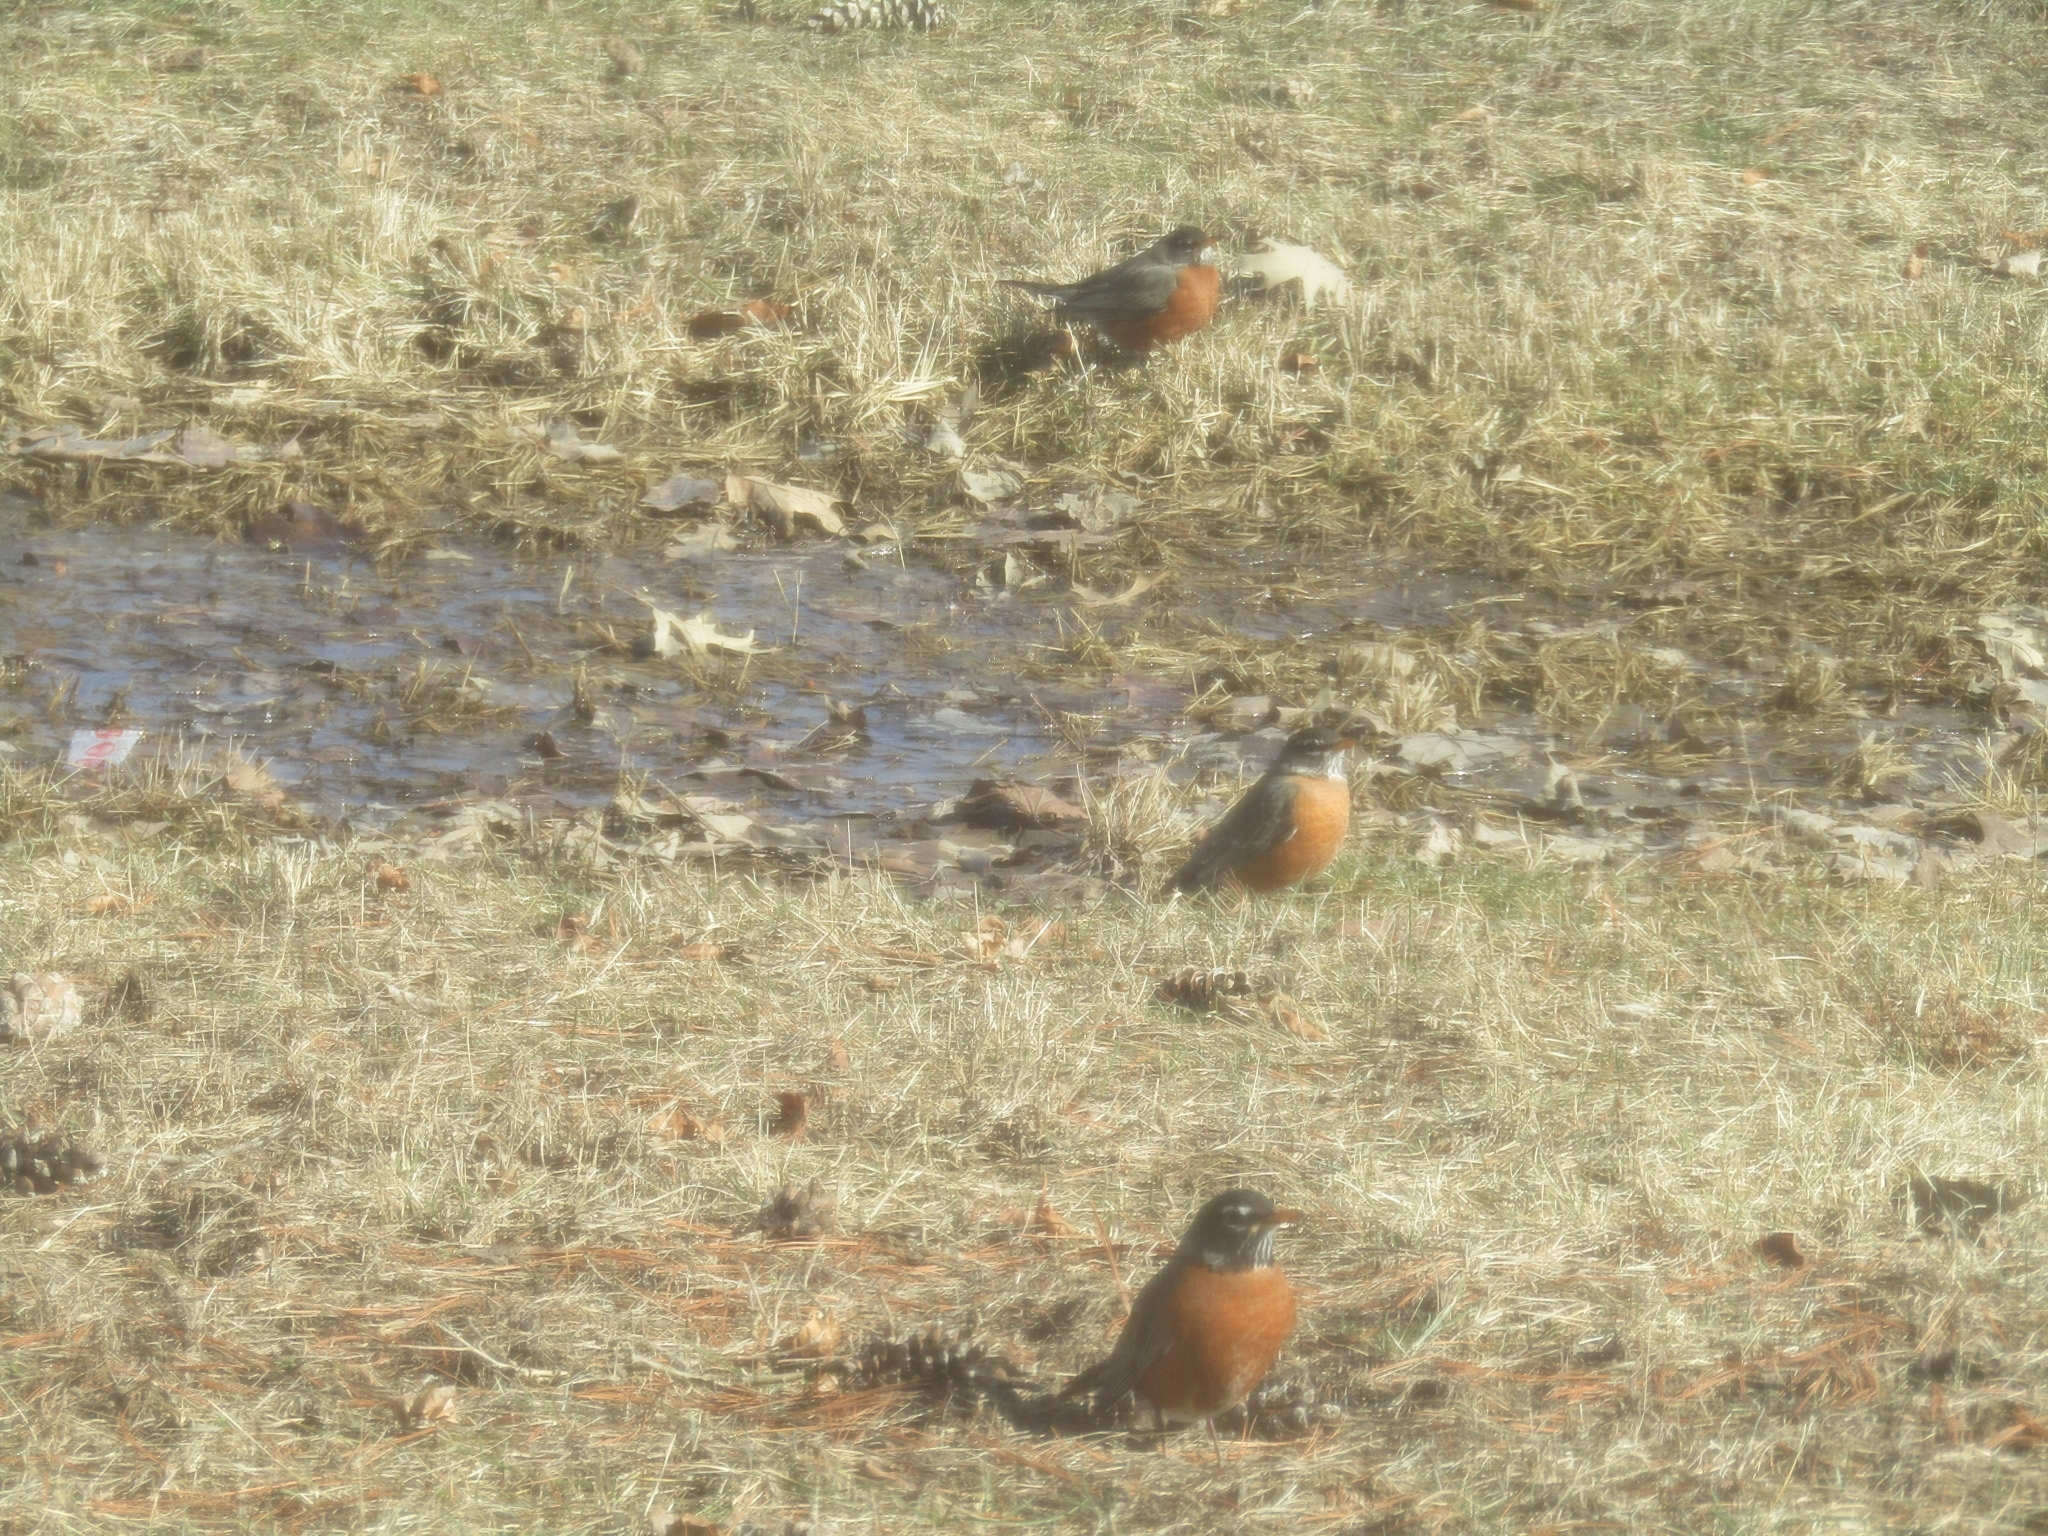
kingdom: Animalia
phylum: Chordata
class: Aves
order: Passeriformes
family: Turdidae
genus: Turdus
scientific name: Turdus migratorius
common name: American robin
